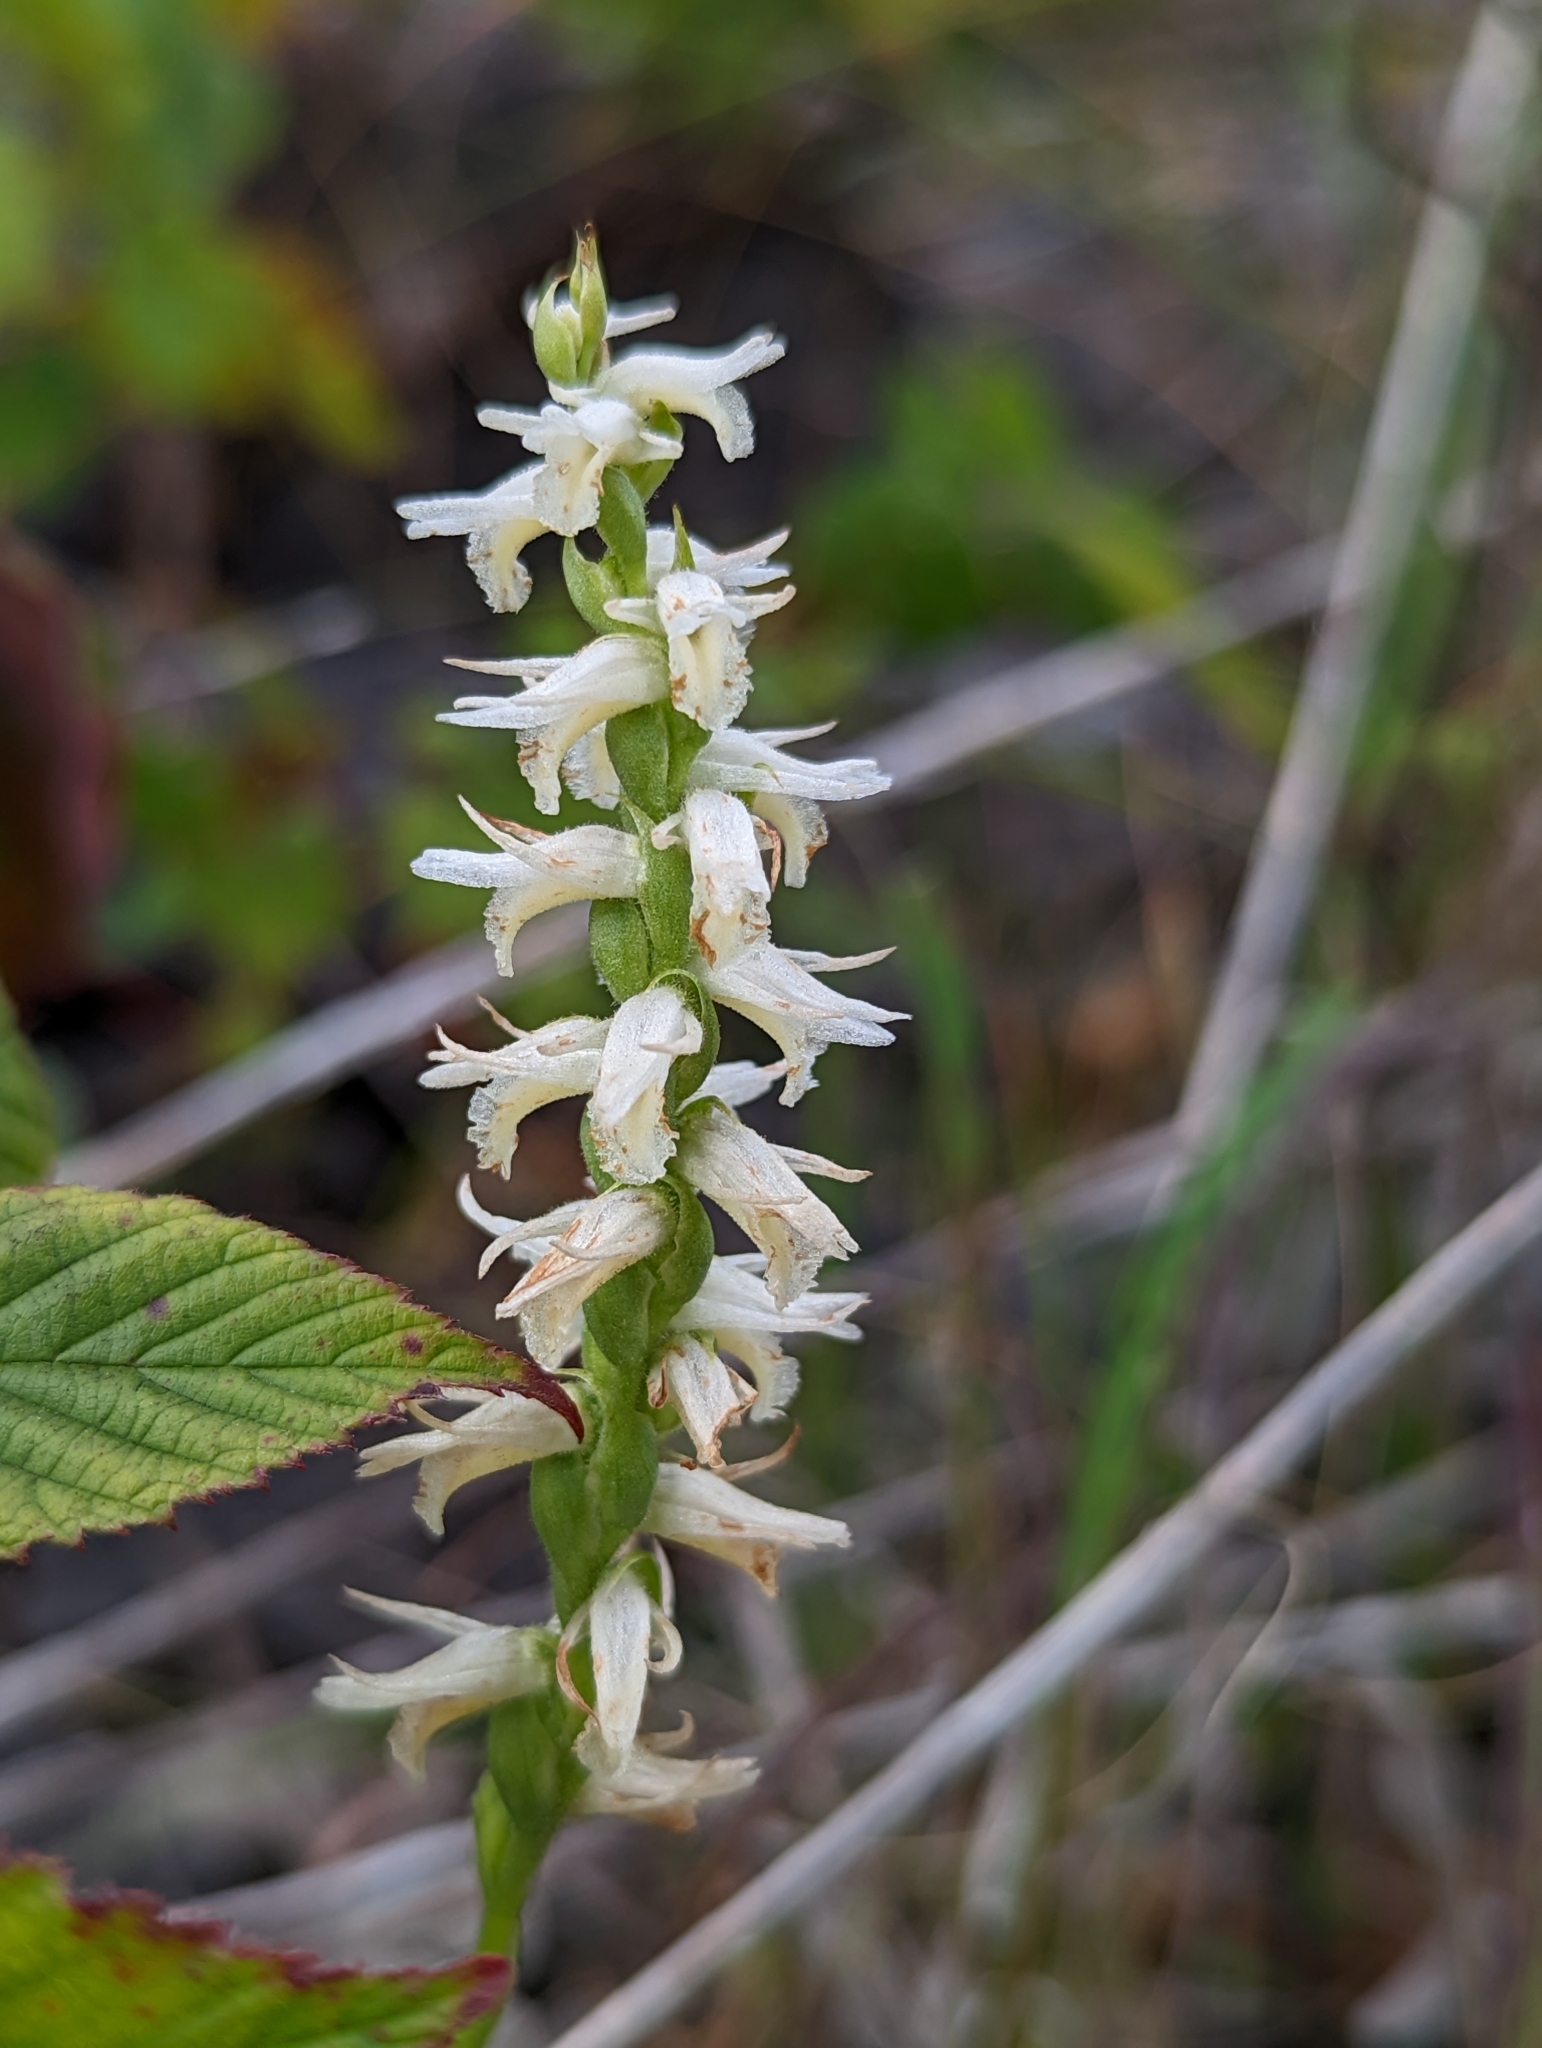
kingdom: Plantae
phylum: Tracheophyta
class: Liliopsida
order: Asparagales
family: Orchidaceae
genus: Spiranthes
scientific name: Spiranthes magnicamporum
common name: Great plains ladies'-tresses
